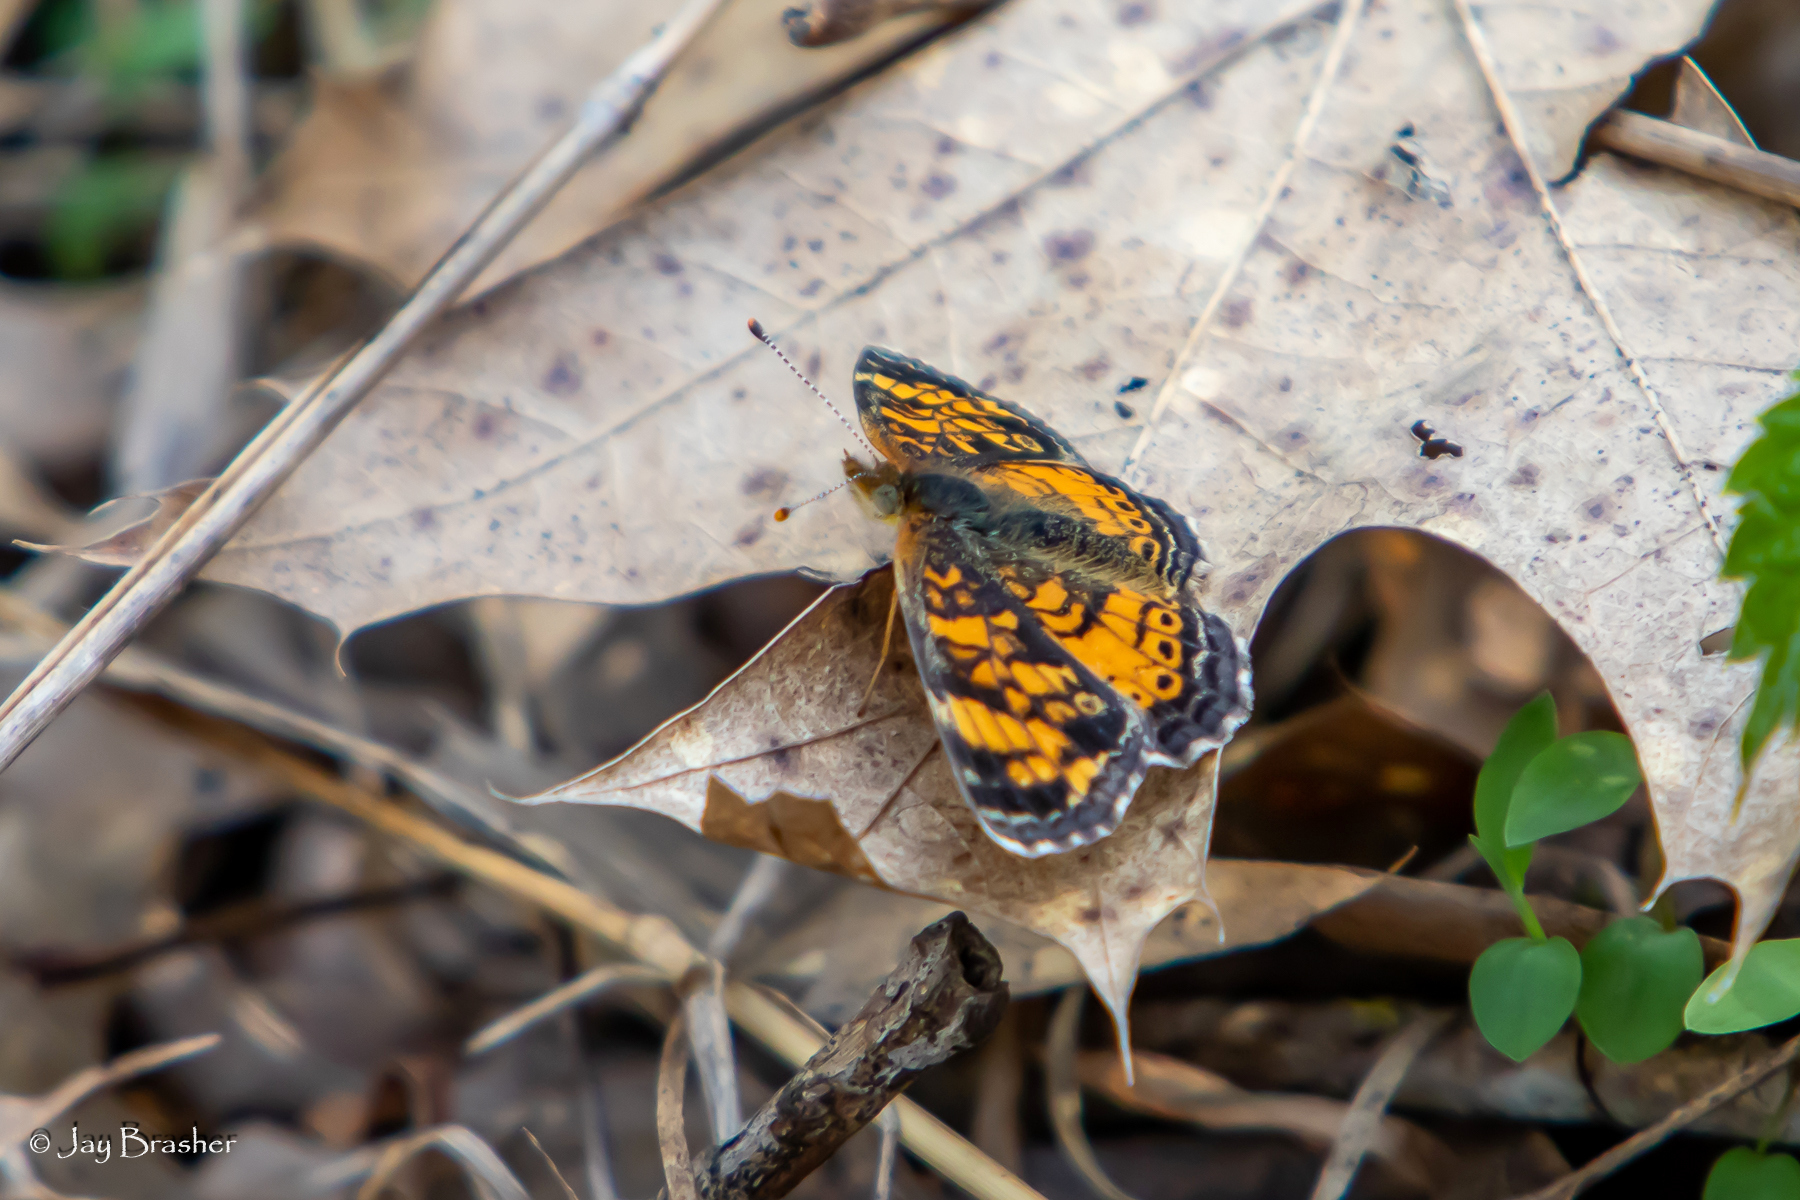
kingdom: Animalia
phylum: Arthropoda
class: Insecta
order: Lepidoptera
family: Nymphalidae
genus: Phyciodes
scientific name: Phyciodes tharos
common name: Pearl crescent
